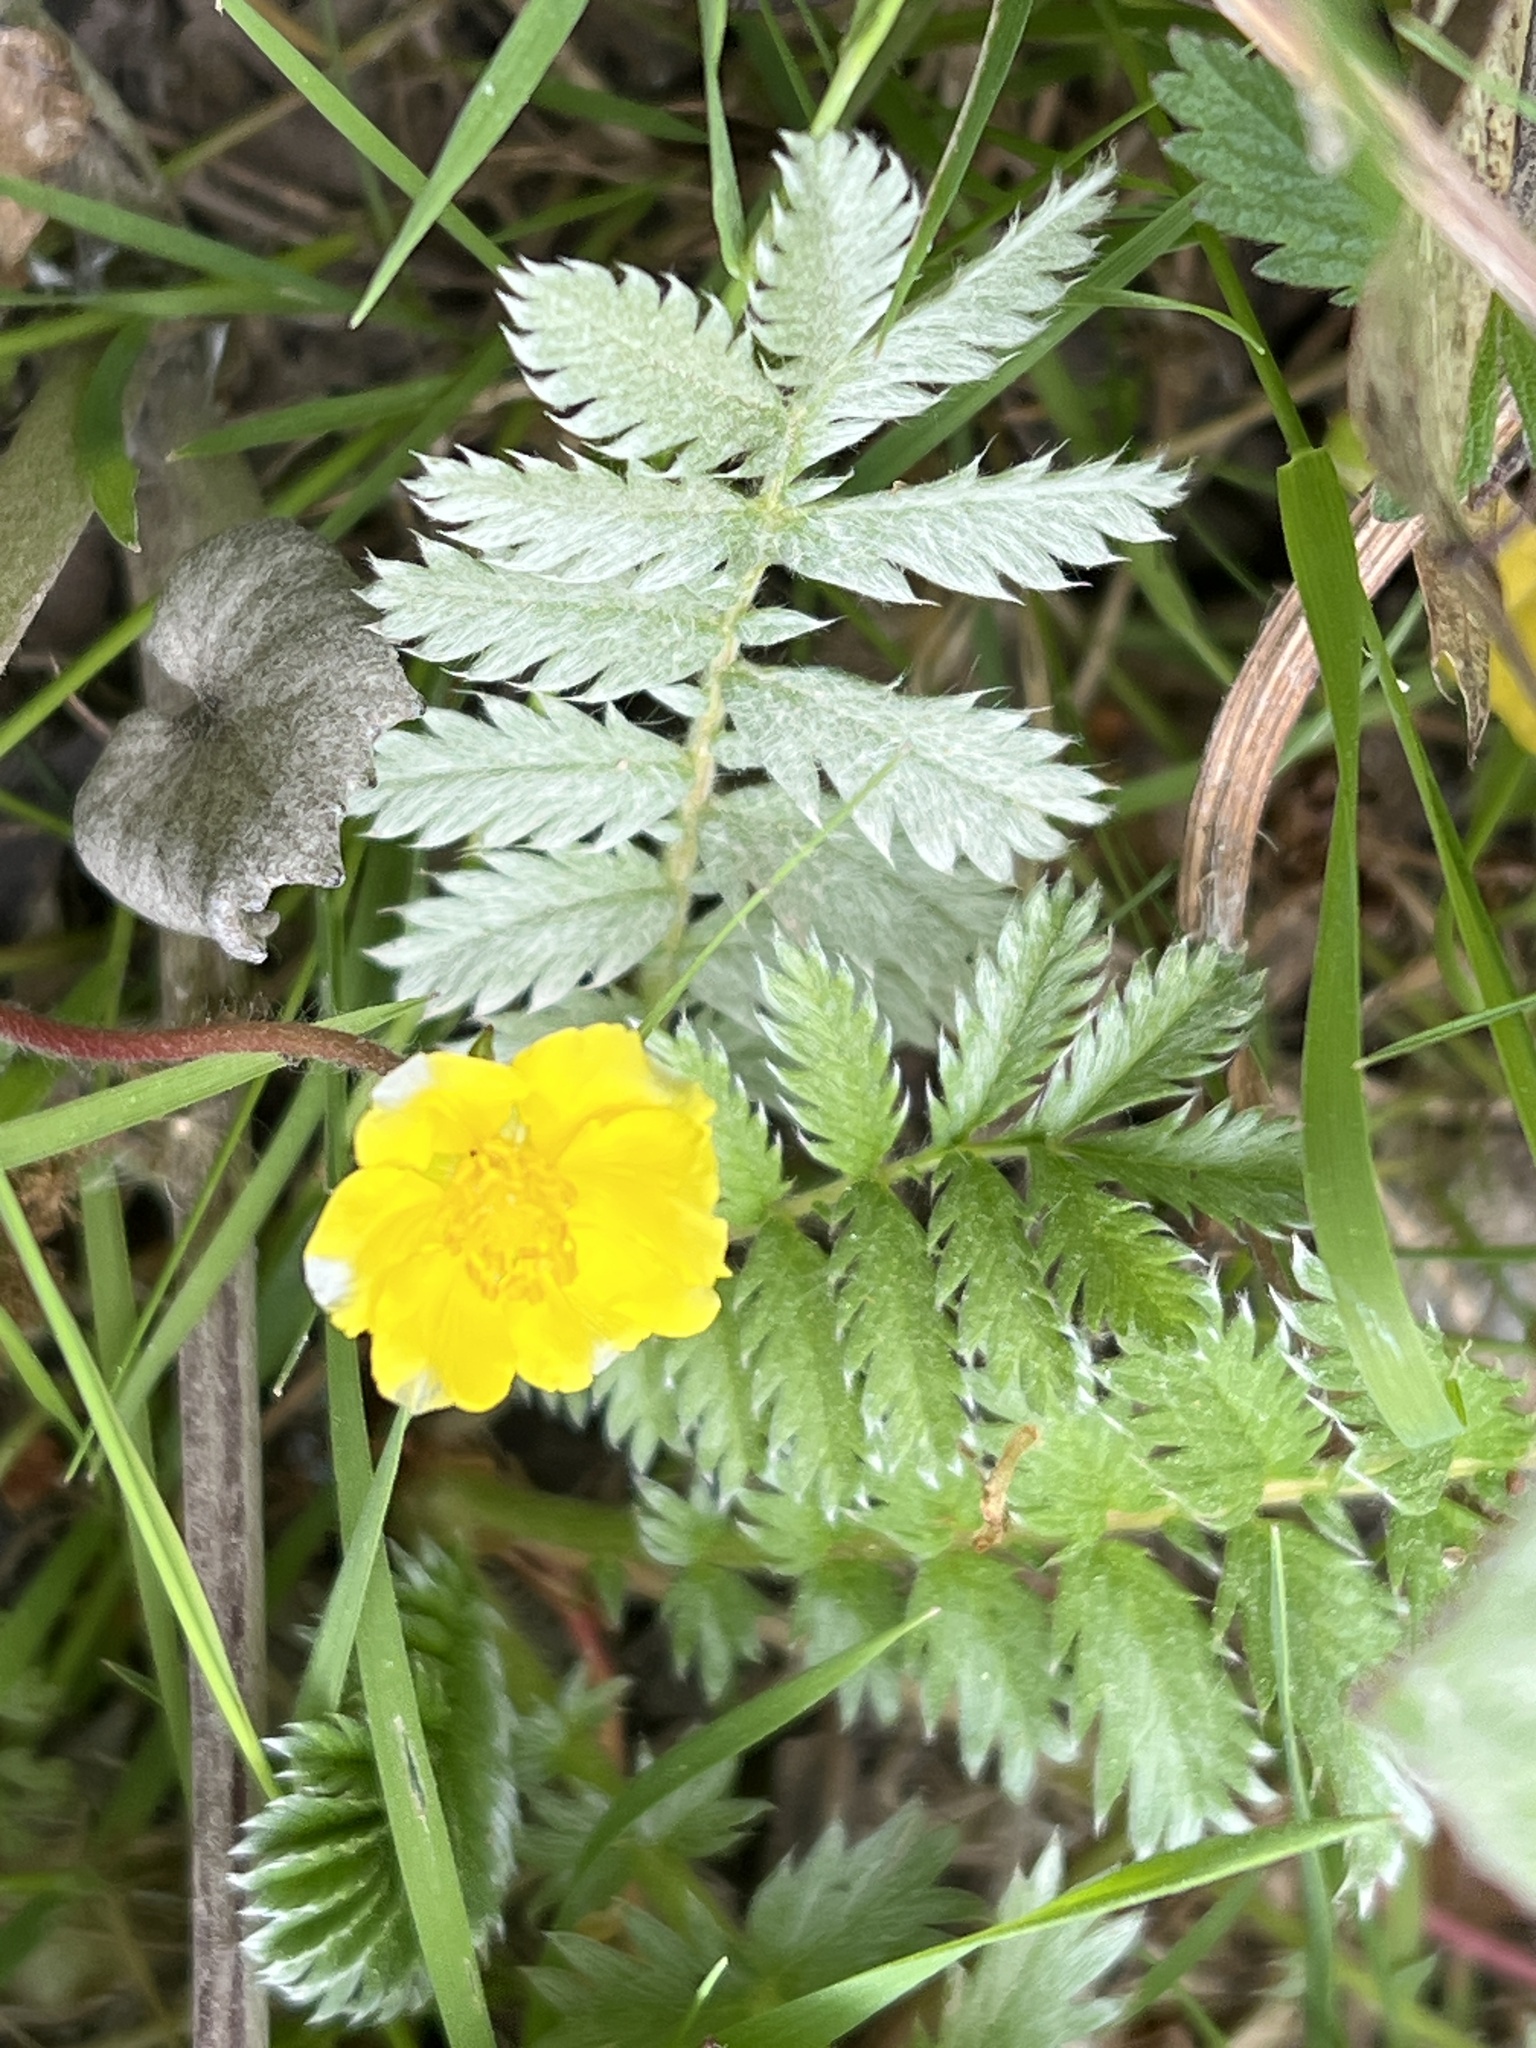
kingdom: Plantae
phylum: Tracheophyta
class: Magnoliopsida
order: Rosales
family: Rosaceae
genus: Argentina
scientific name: Argentina anserina
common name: Common silverweed
